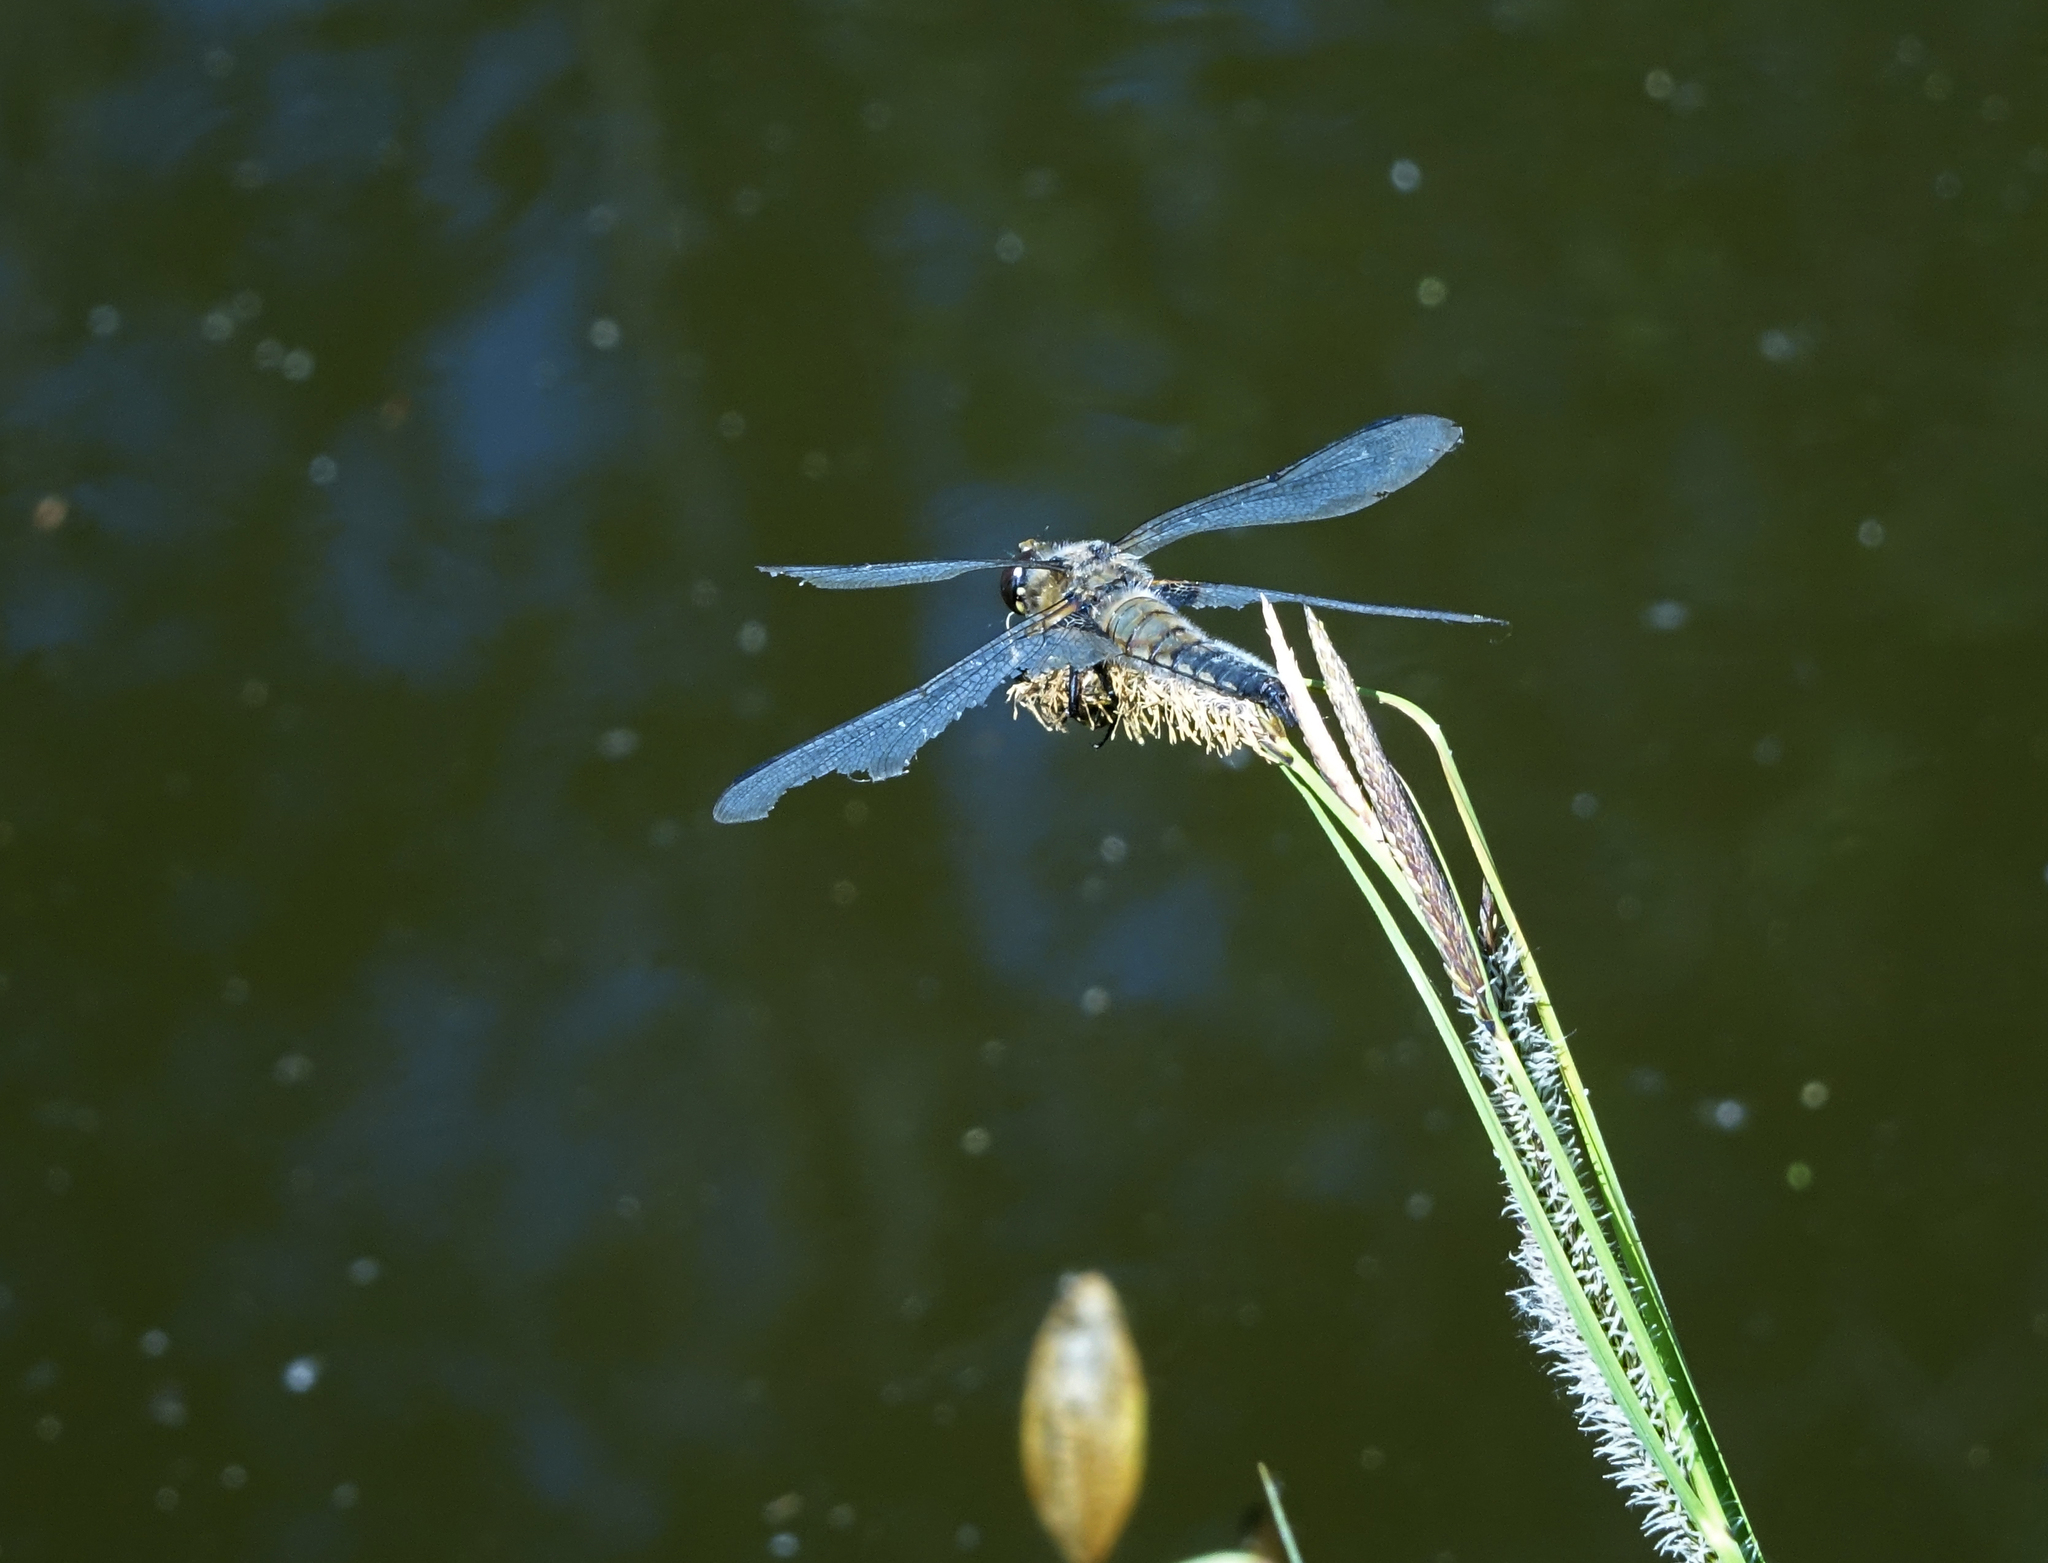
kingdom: Animalia
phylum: Arthropoda
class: Insecta
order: Odonata
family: Libellulidae
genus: Libellula
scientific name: Libellula quadrimaculata
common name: Four-spotted chaser
